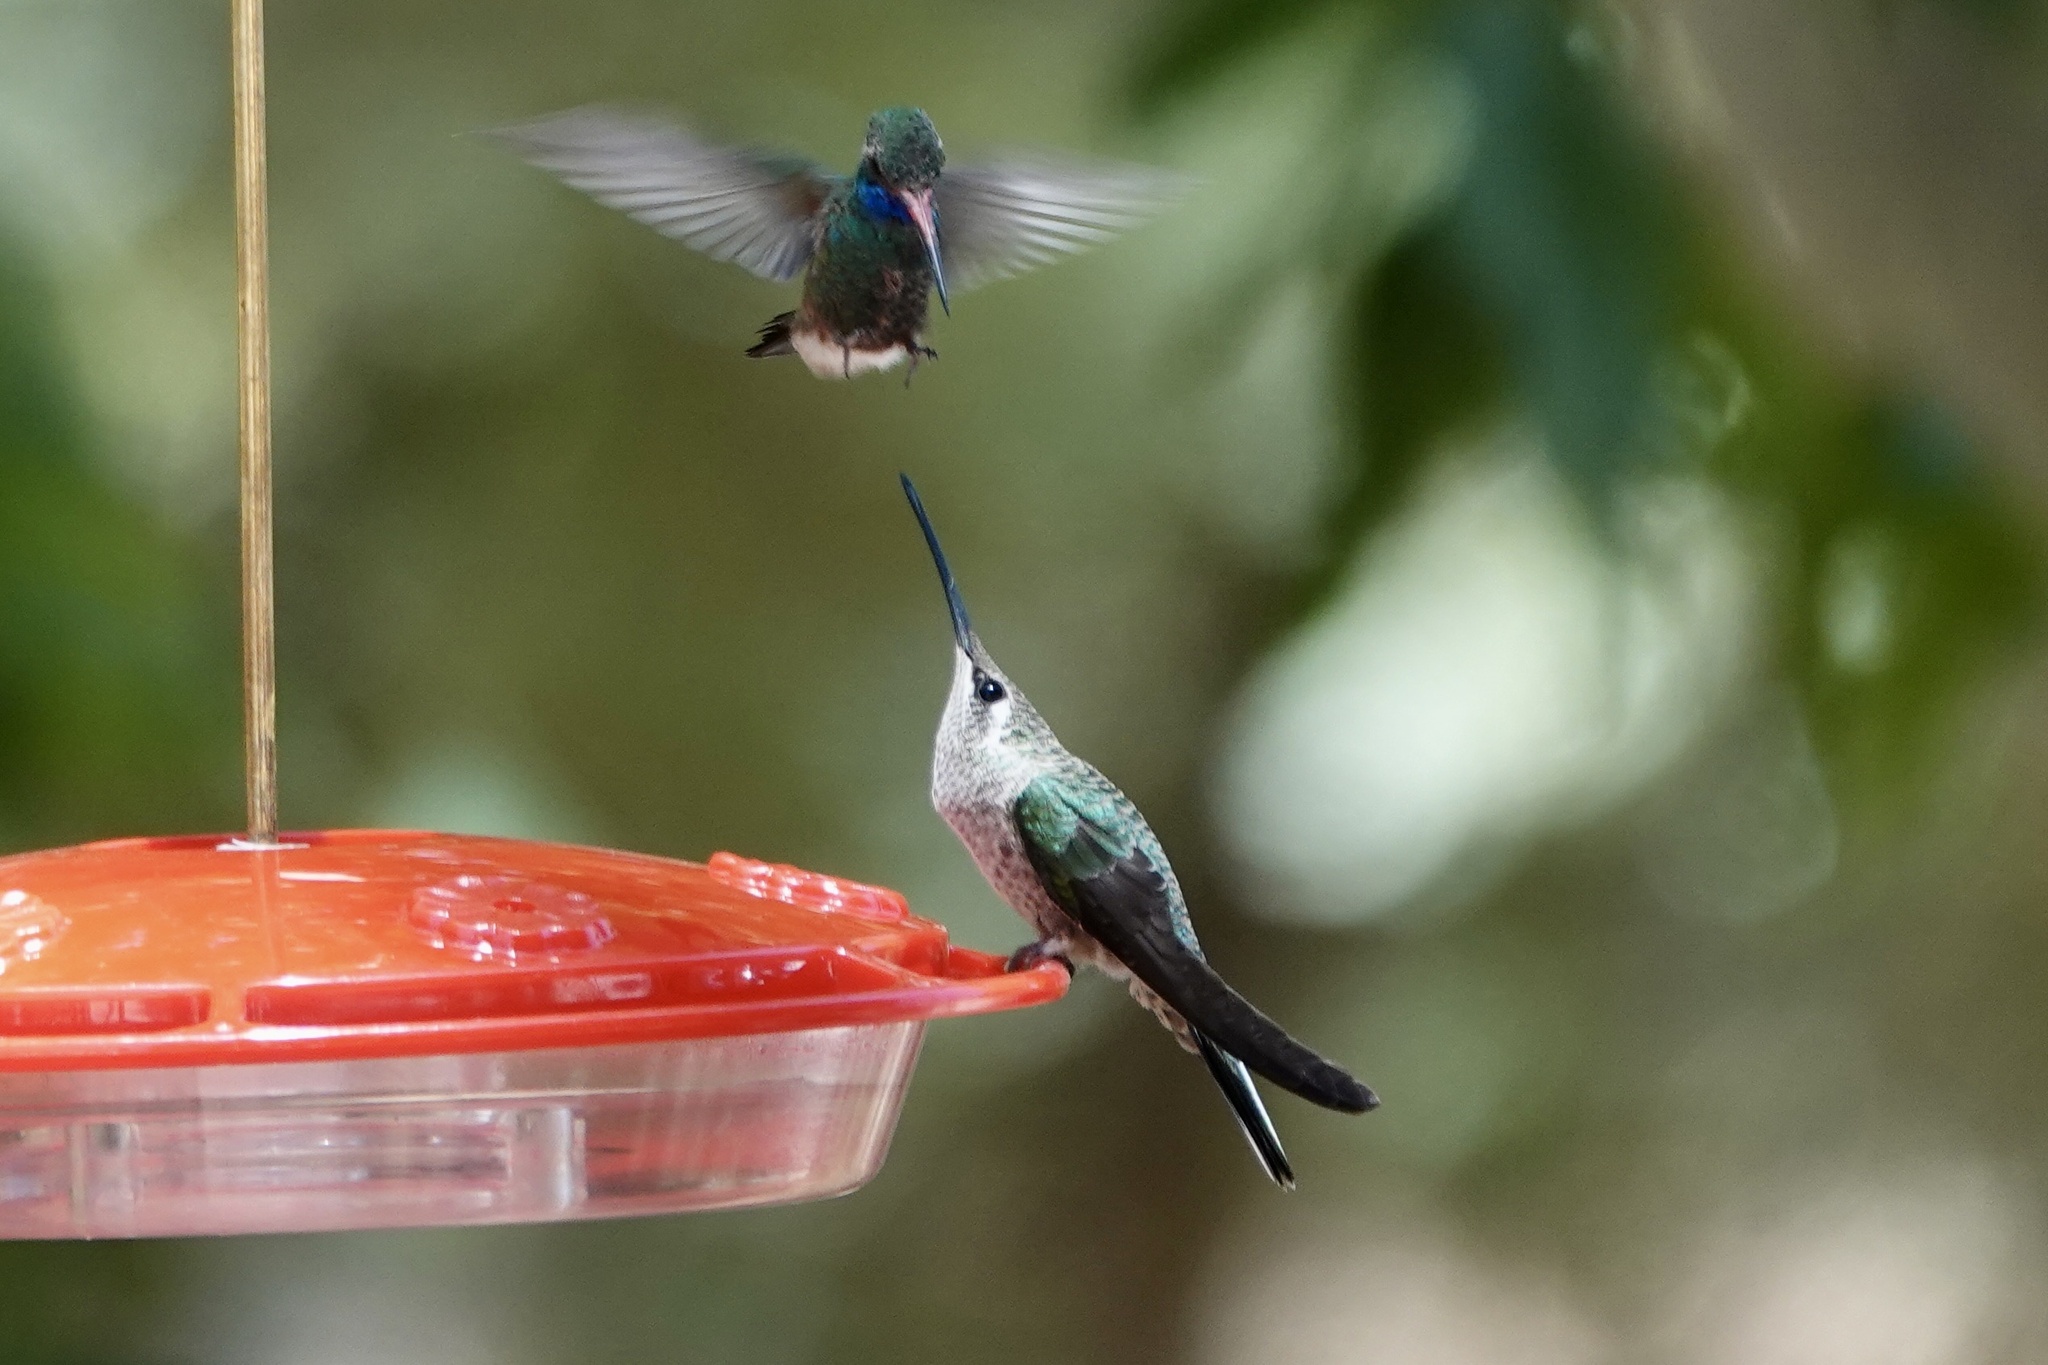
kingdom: Animalia
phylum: Chordata
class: Aves
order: Apodiformes
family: Trochilidae
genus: Eugenes
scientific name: Eugenes fulgens
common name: Magnificent hummingbird
